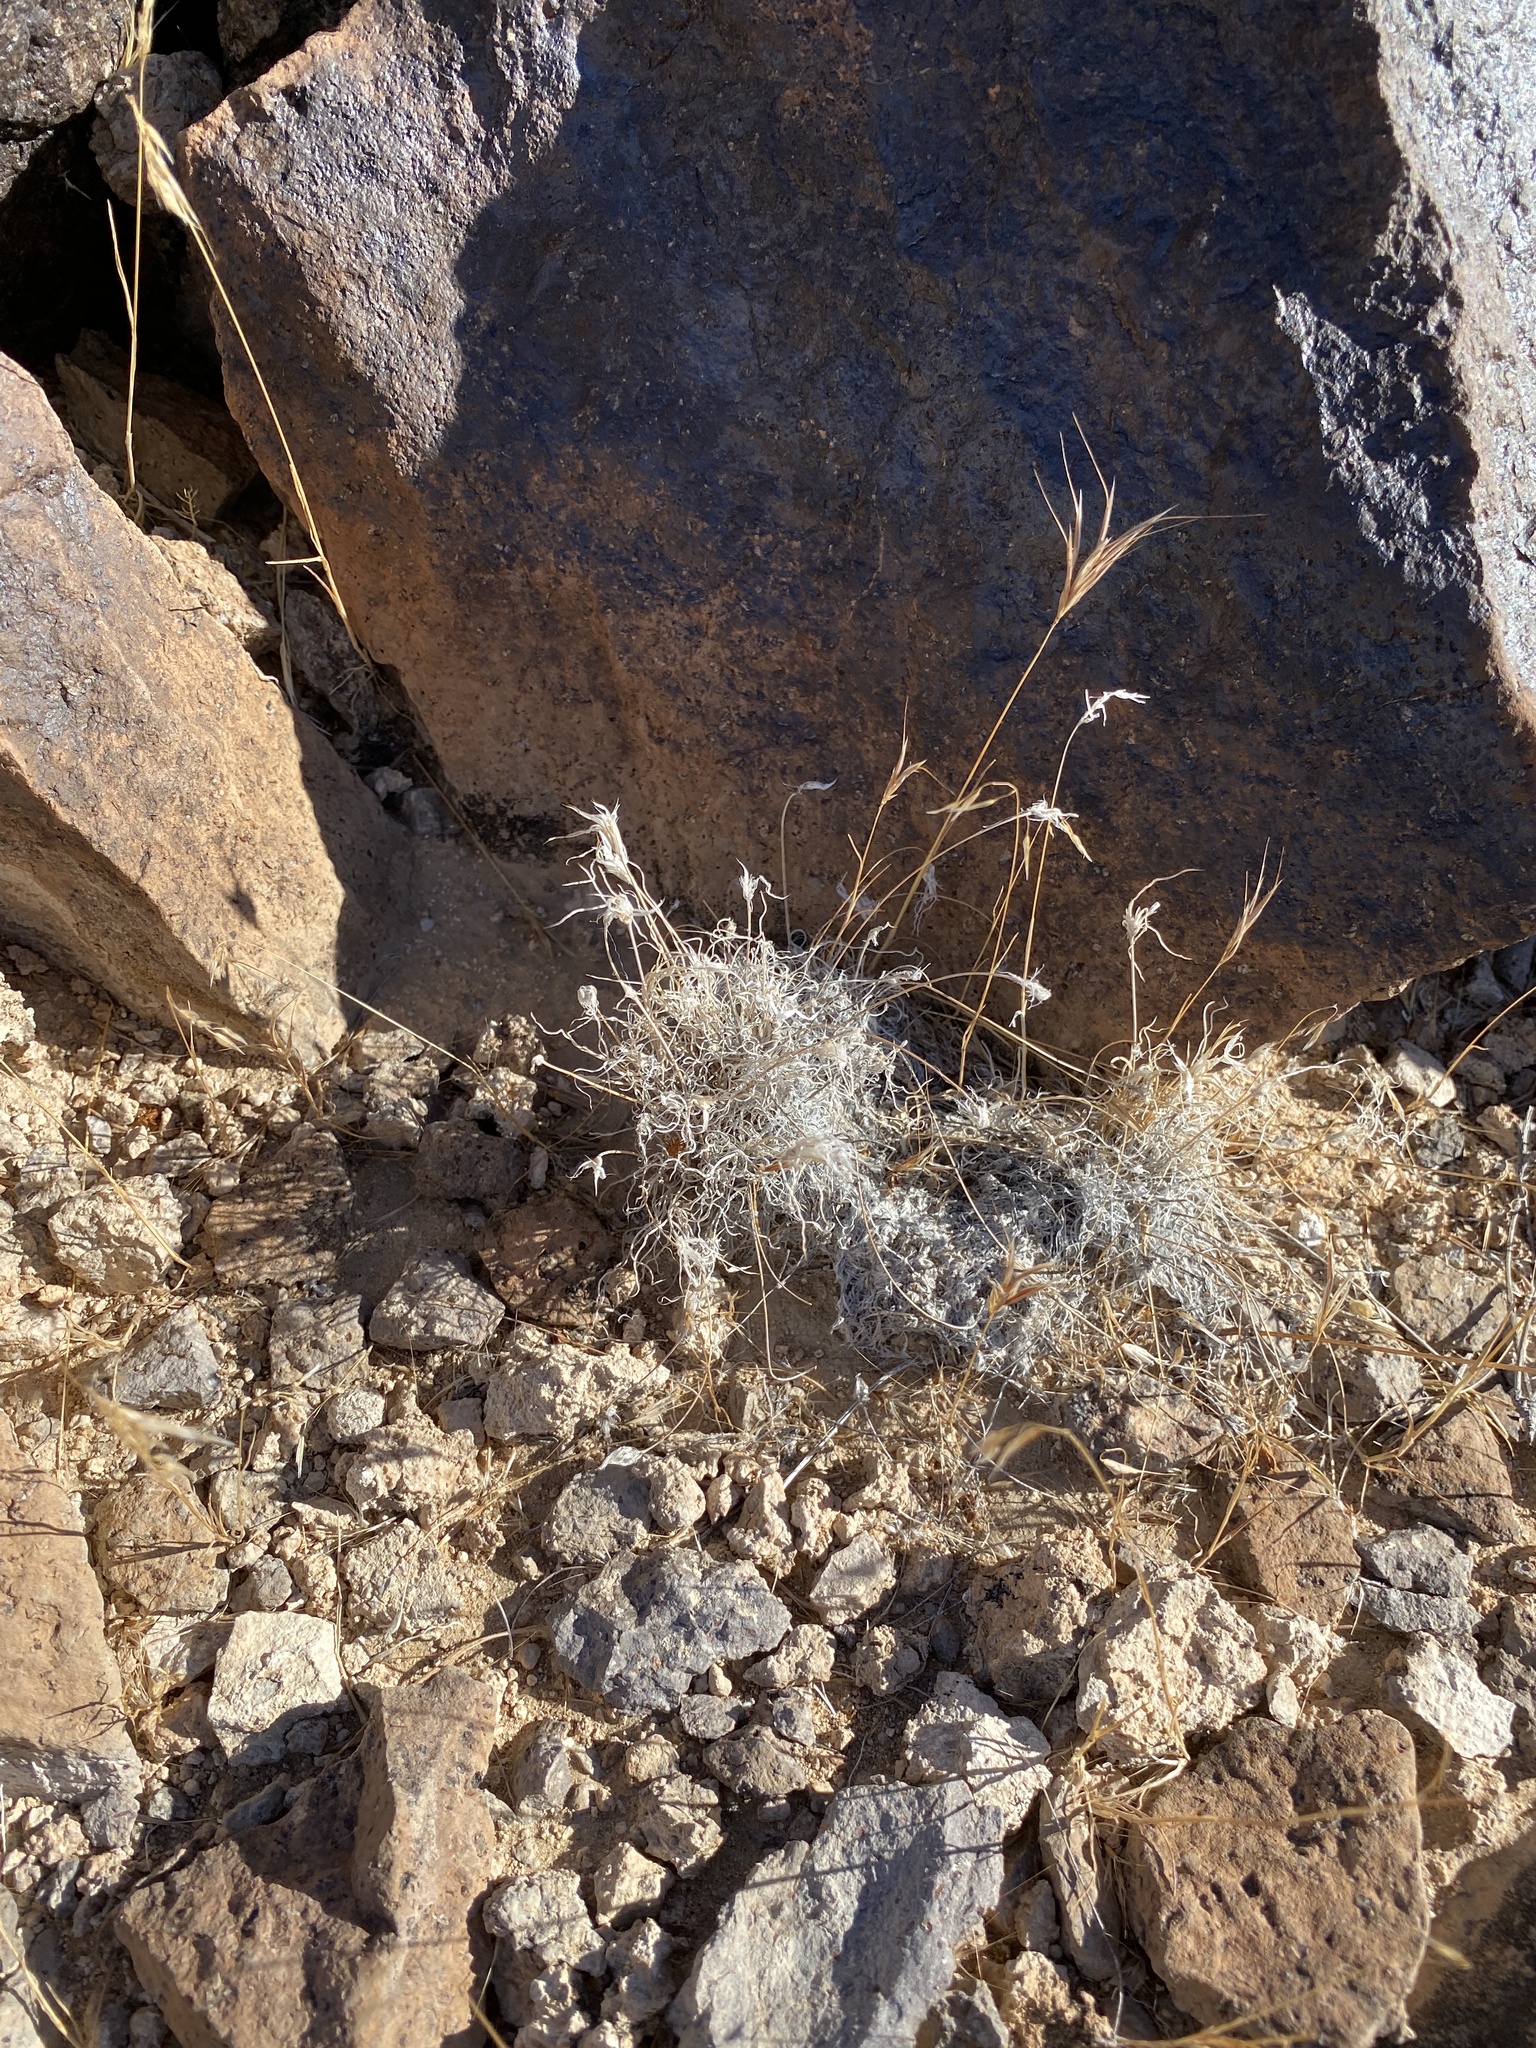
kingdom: Plantae
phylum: Tracheophyta
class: Liliopsida
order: Poales
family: Poaceae
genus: Dasyochloa
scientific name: Dasyochloa pulchella
